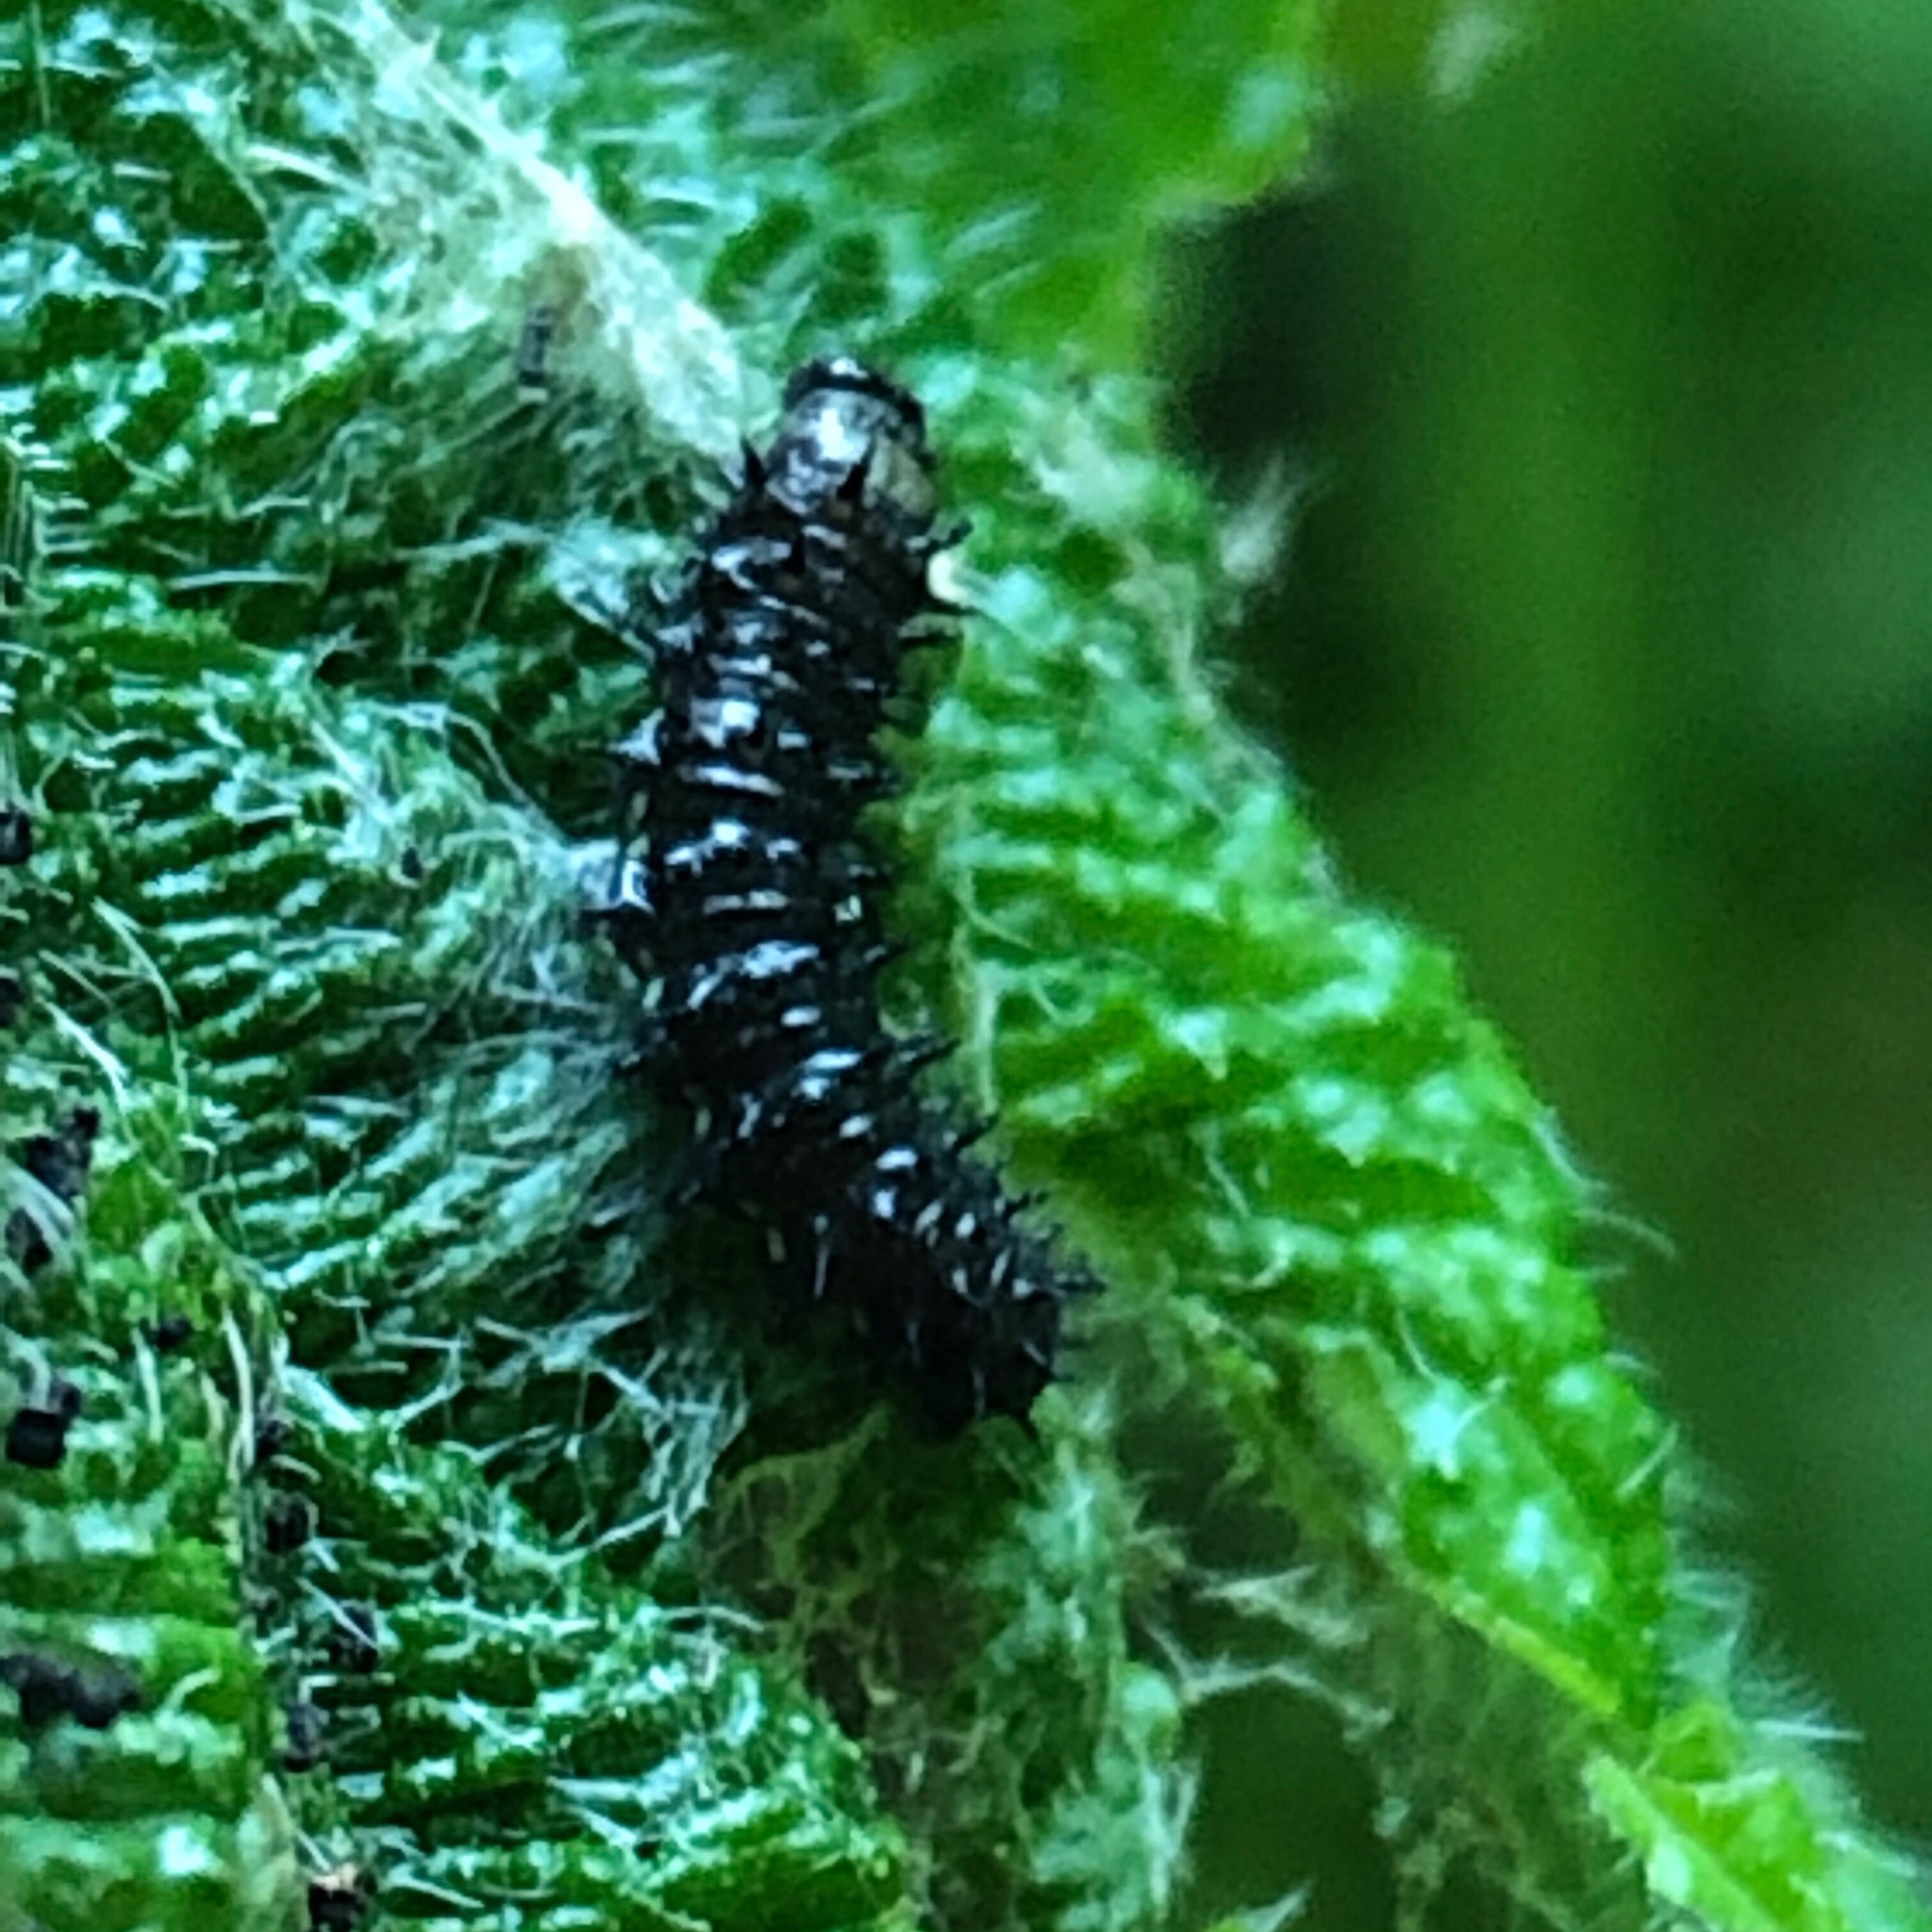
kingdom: Animalia
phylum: Arthropoda
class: Insecta
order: Lepidoptera
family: Nymphalidae
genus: Vanessa
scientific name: Vanessa atalanta
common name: Red admiral
